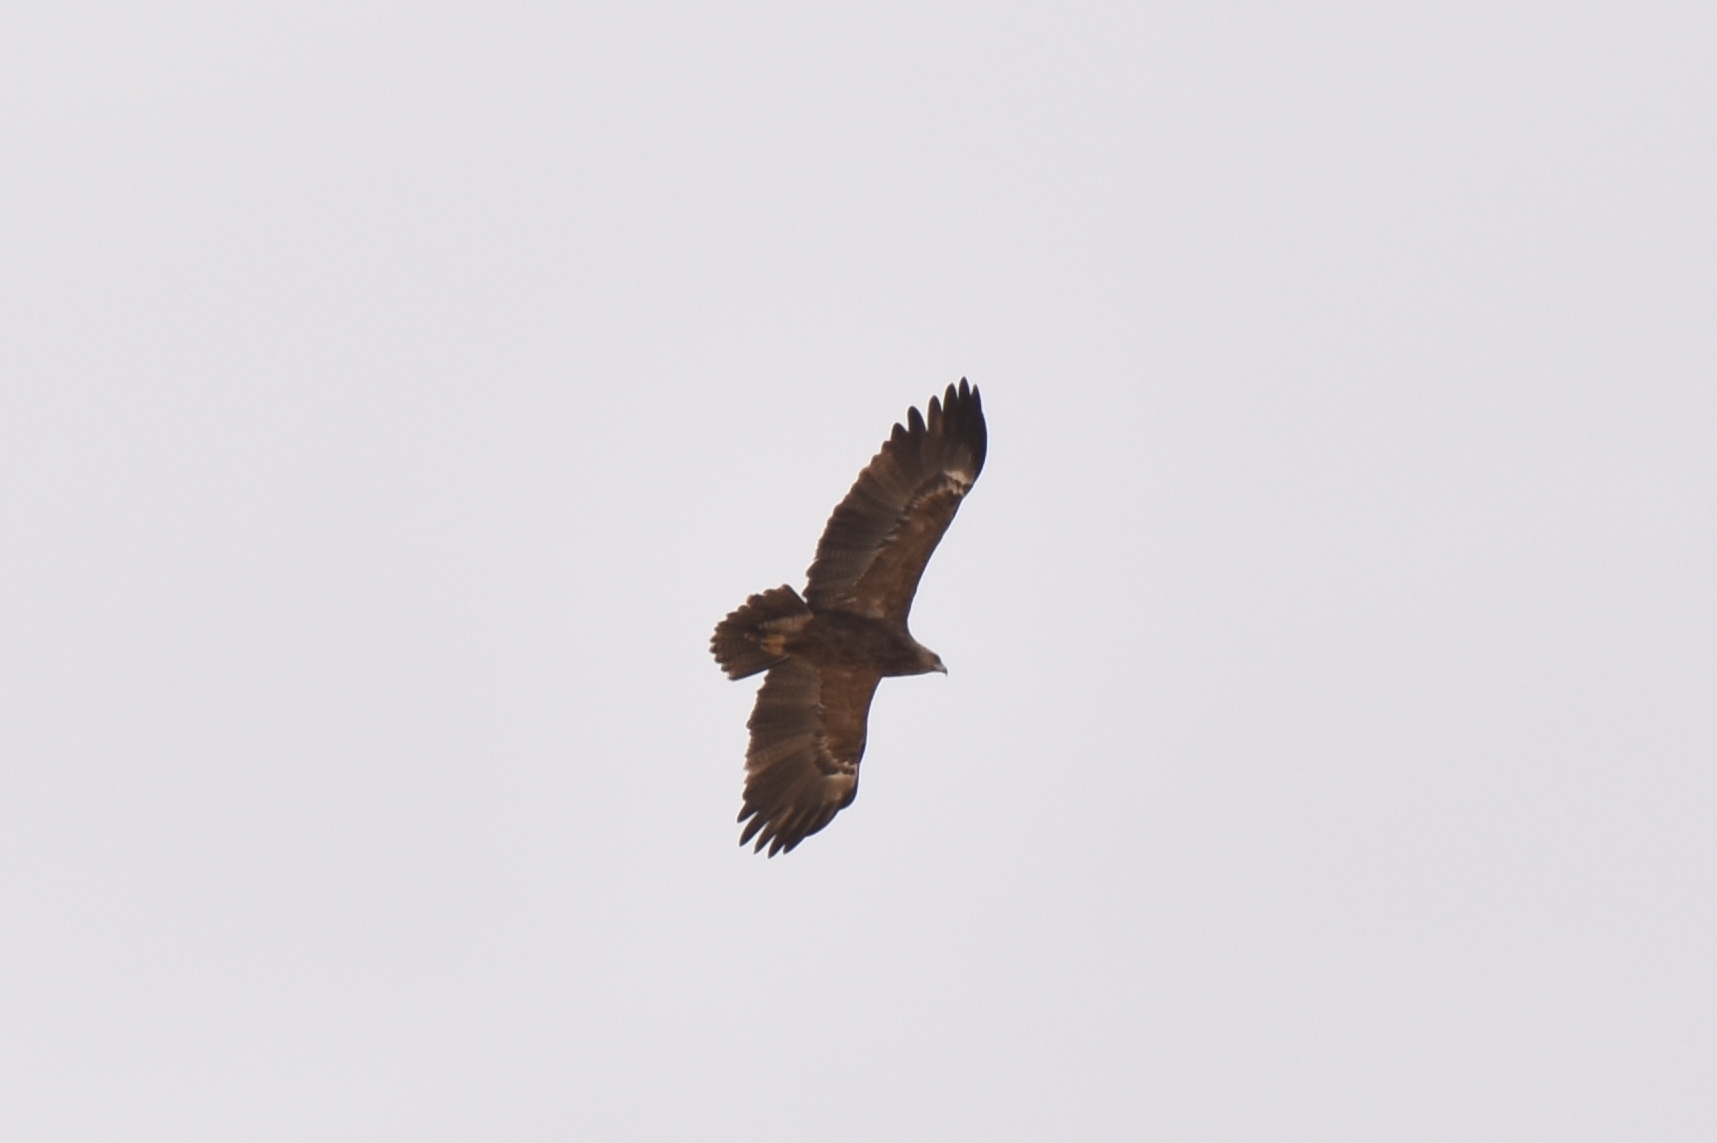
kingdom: Animalia
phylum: Chordata
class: Aves
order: Accipitriformes
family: Accipitridae
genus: Aquila
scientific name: Aquila pomarina
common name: Lesser spotted eagle
